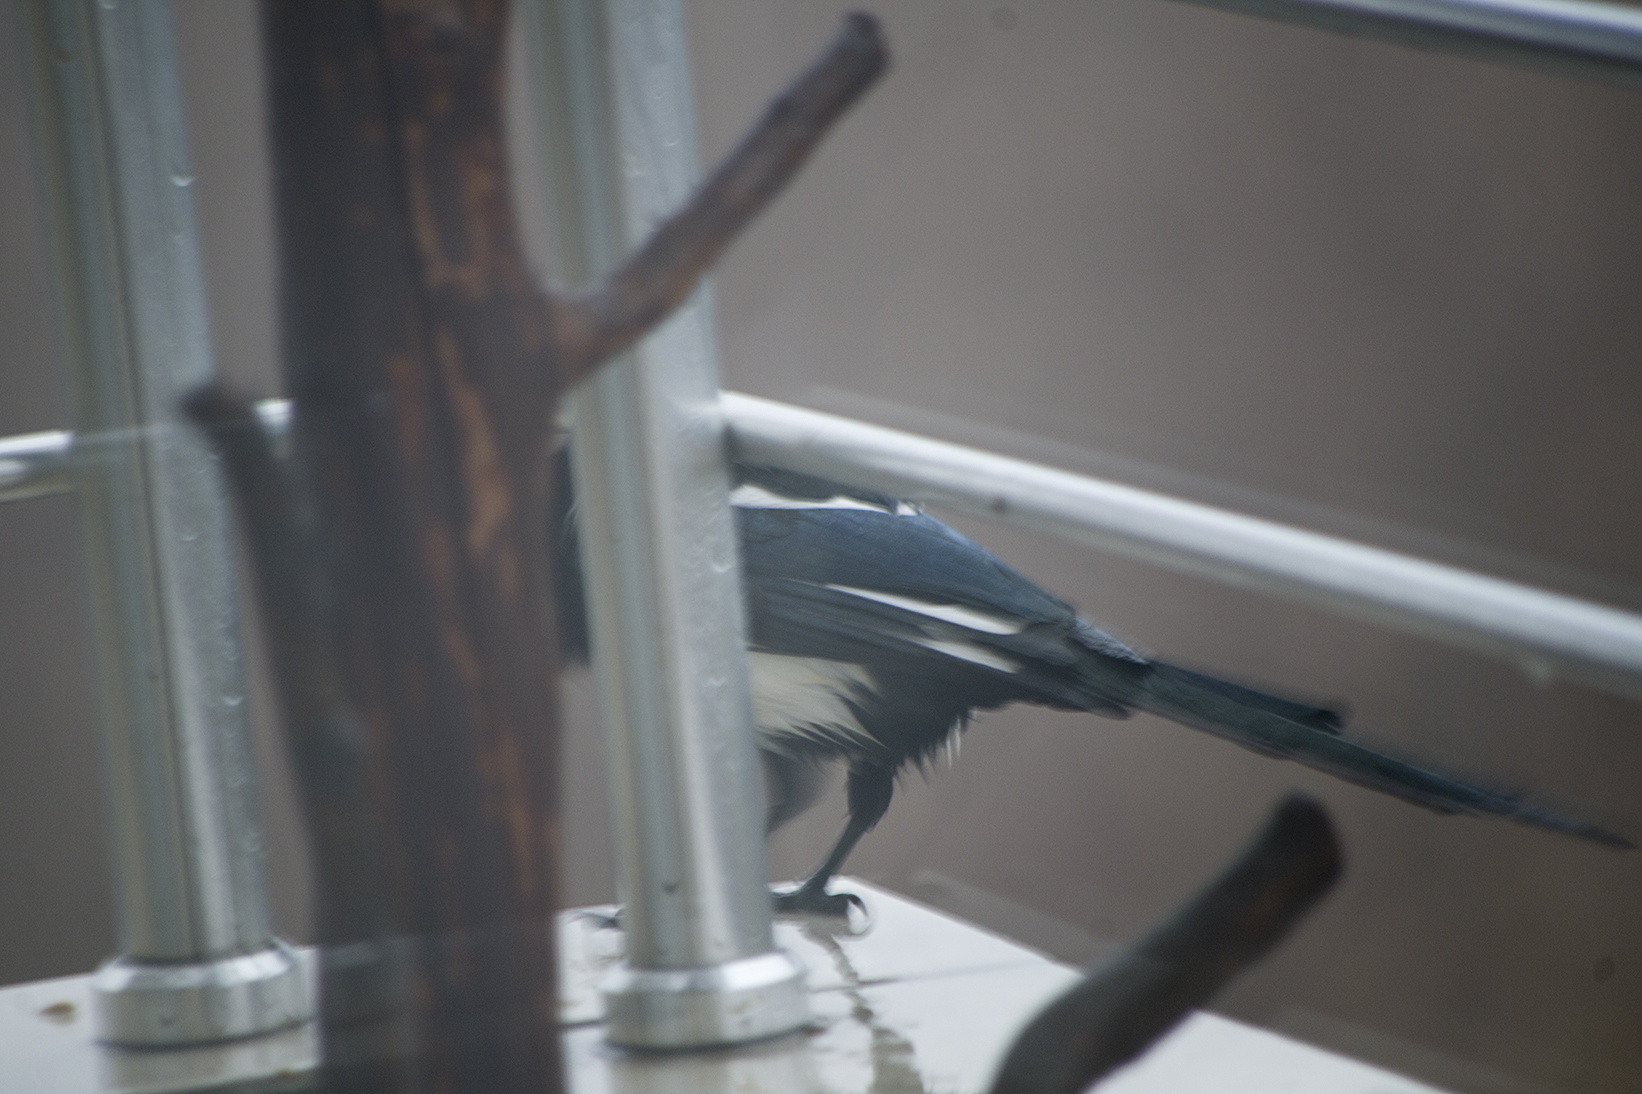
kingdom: Animalia
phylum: Chordata
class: Aves
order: Passeriformes
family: Corvidae
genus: Pica
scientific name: Pica pica
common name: Eurasian magpie
